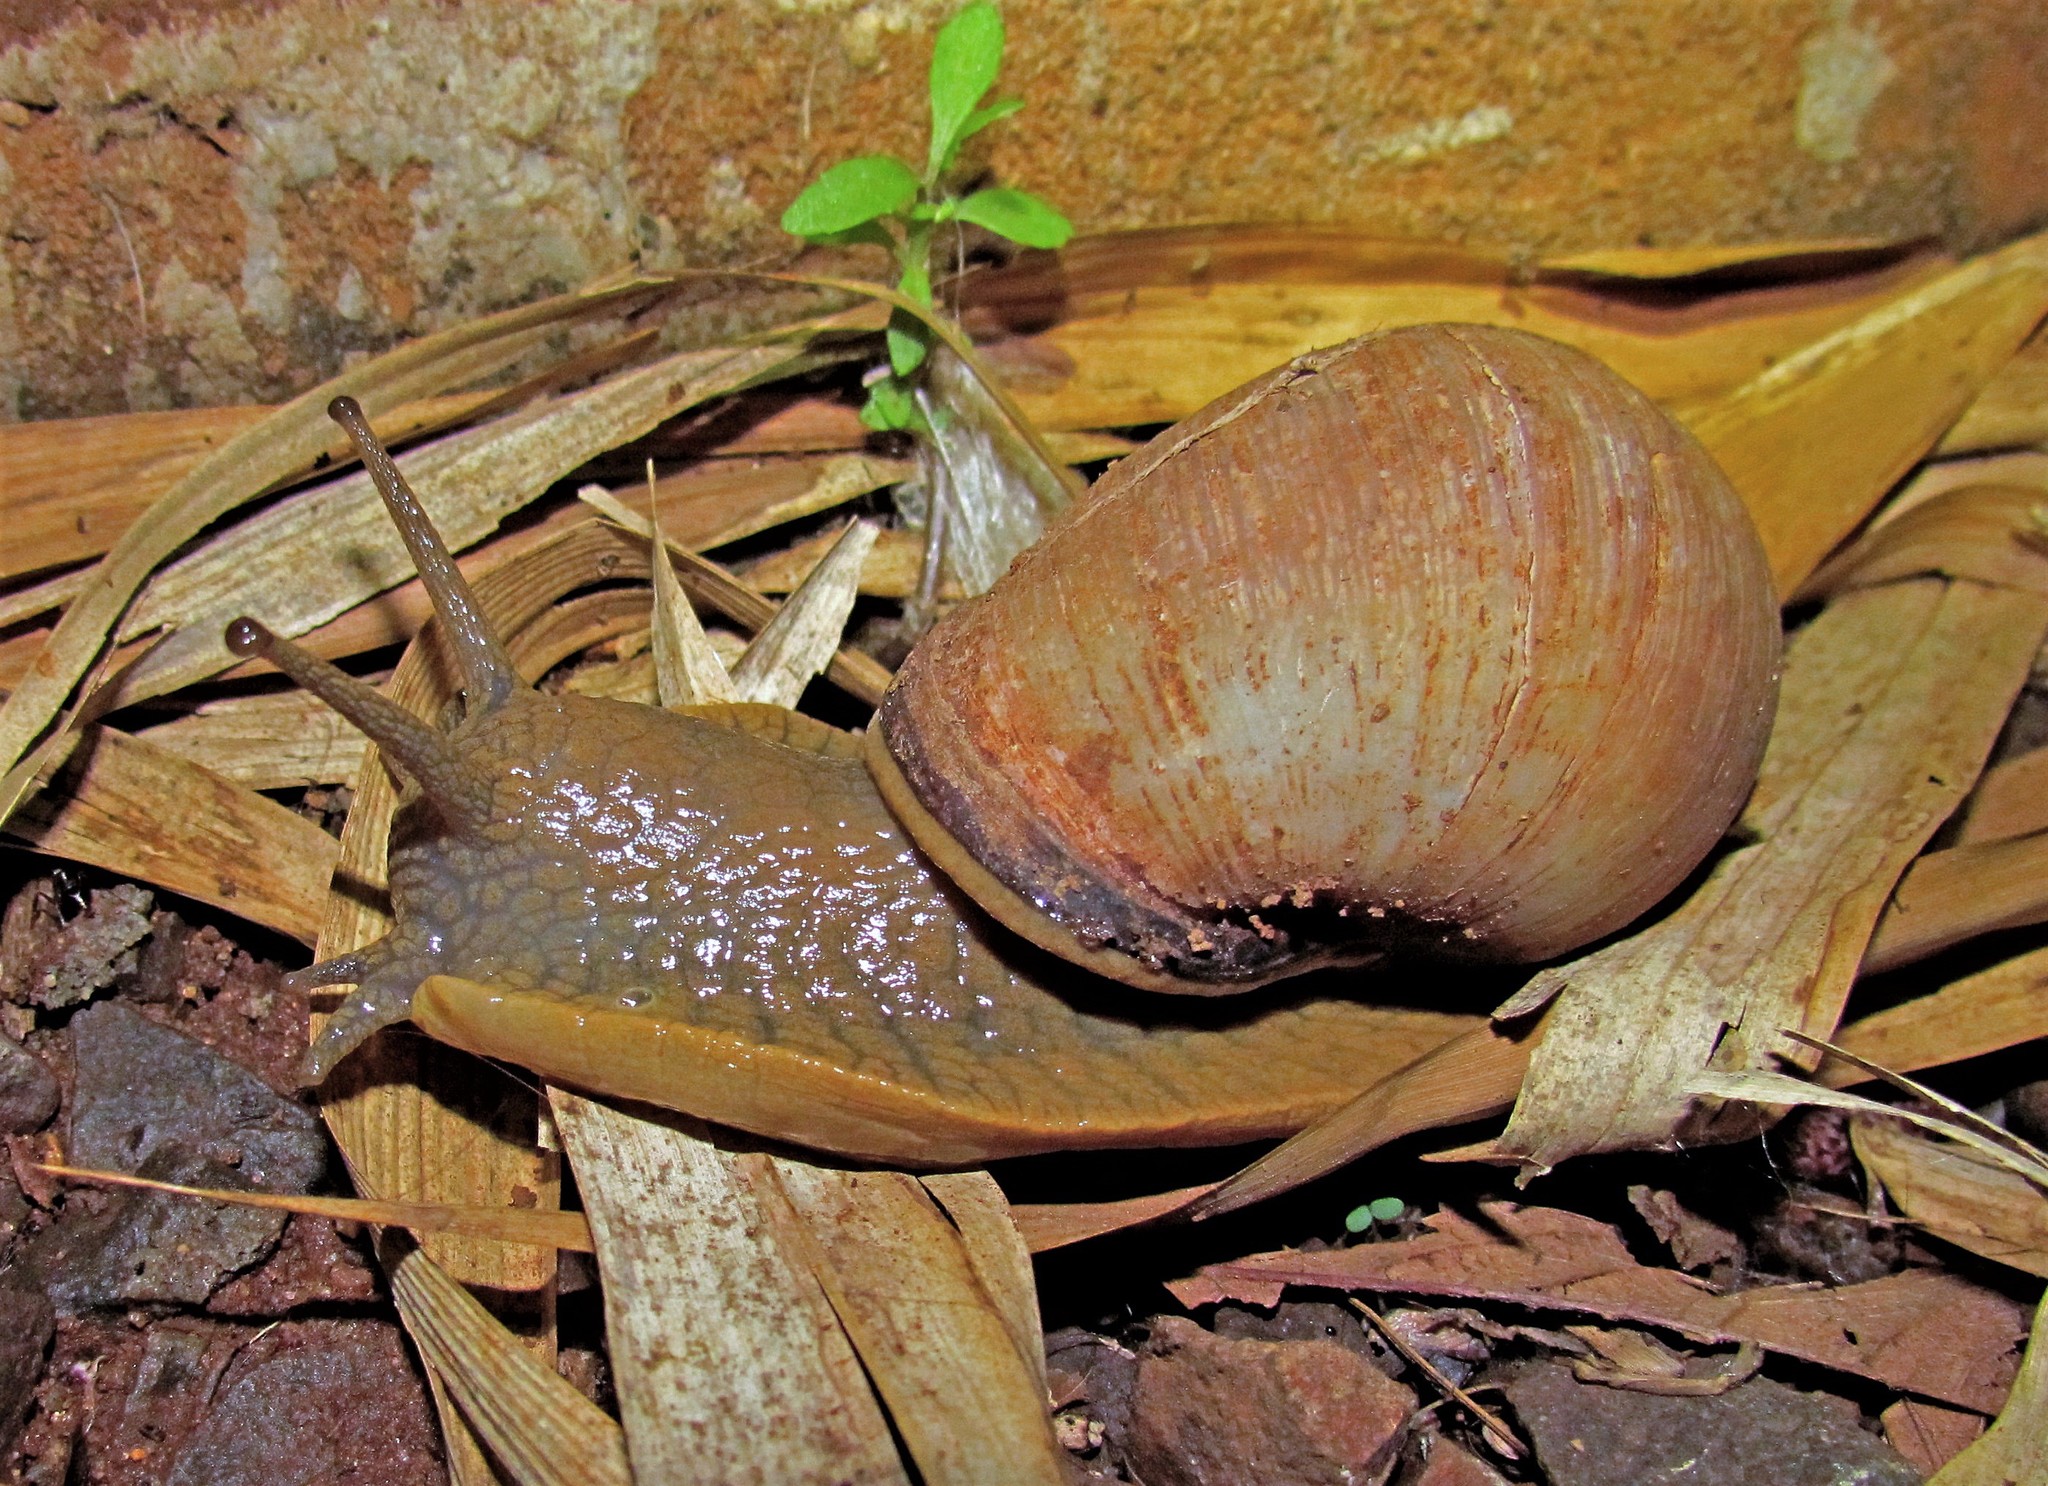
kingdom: Animalia
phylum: Mollusca
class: Gastropoda
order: Stylommatophora
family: Strophocheilidae
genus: Megalobulimus
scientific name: Megalobulimus sanctaepauli
